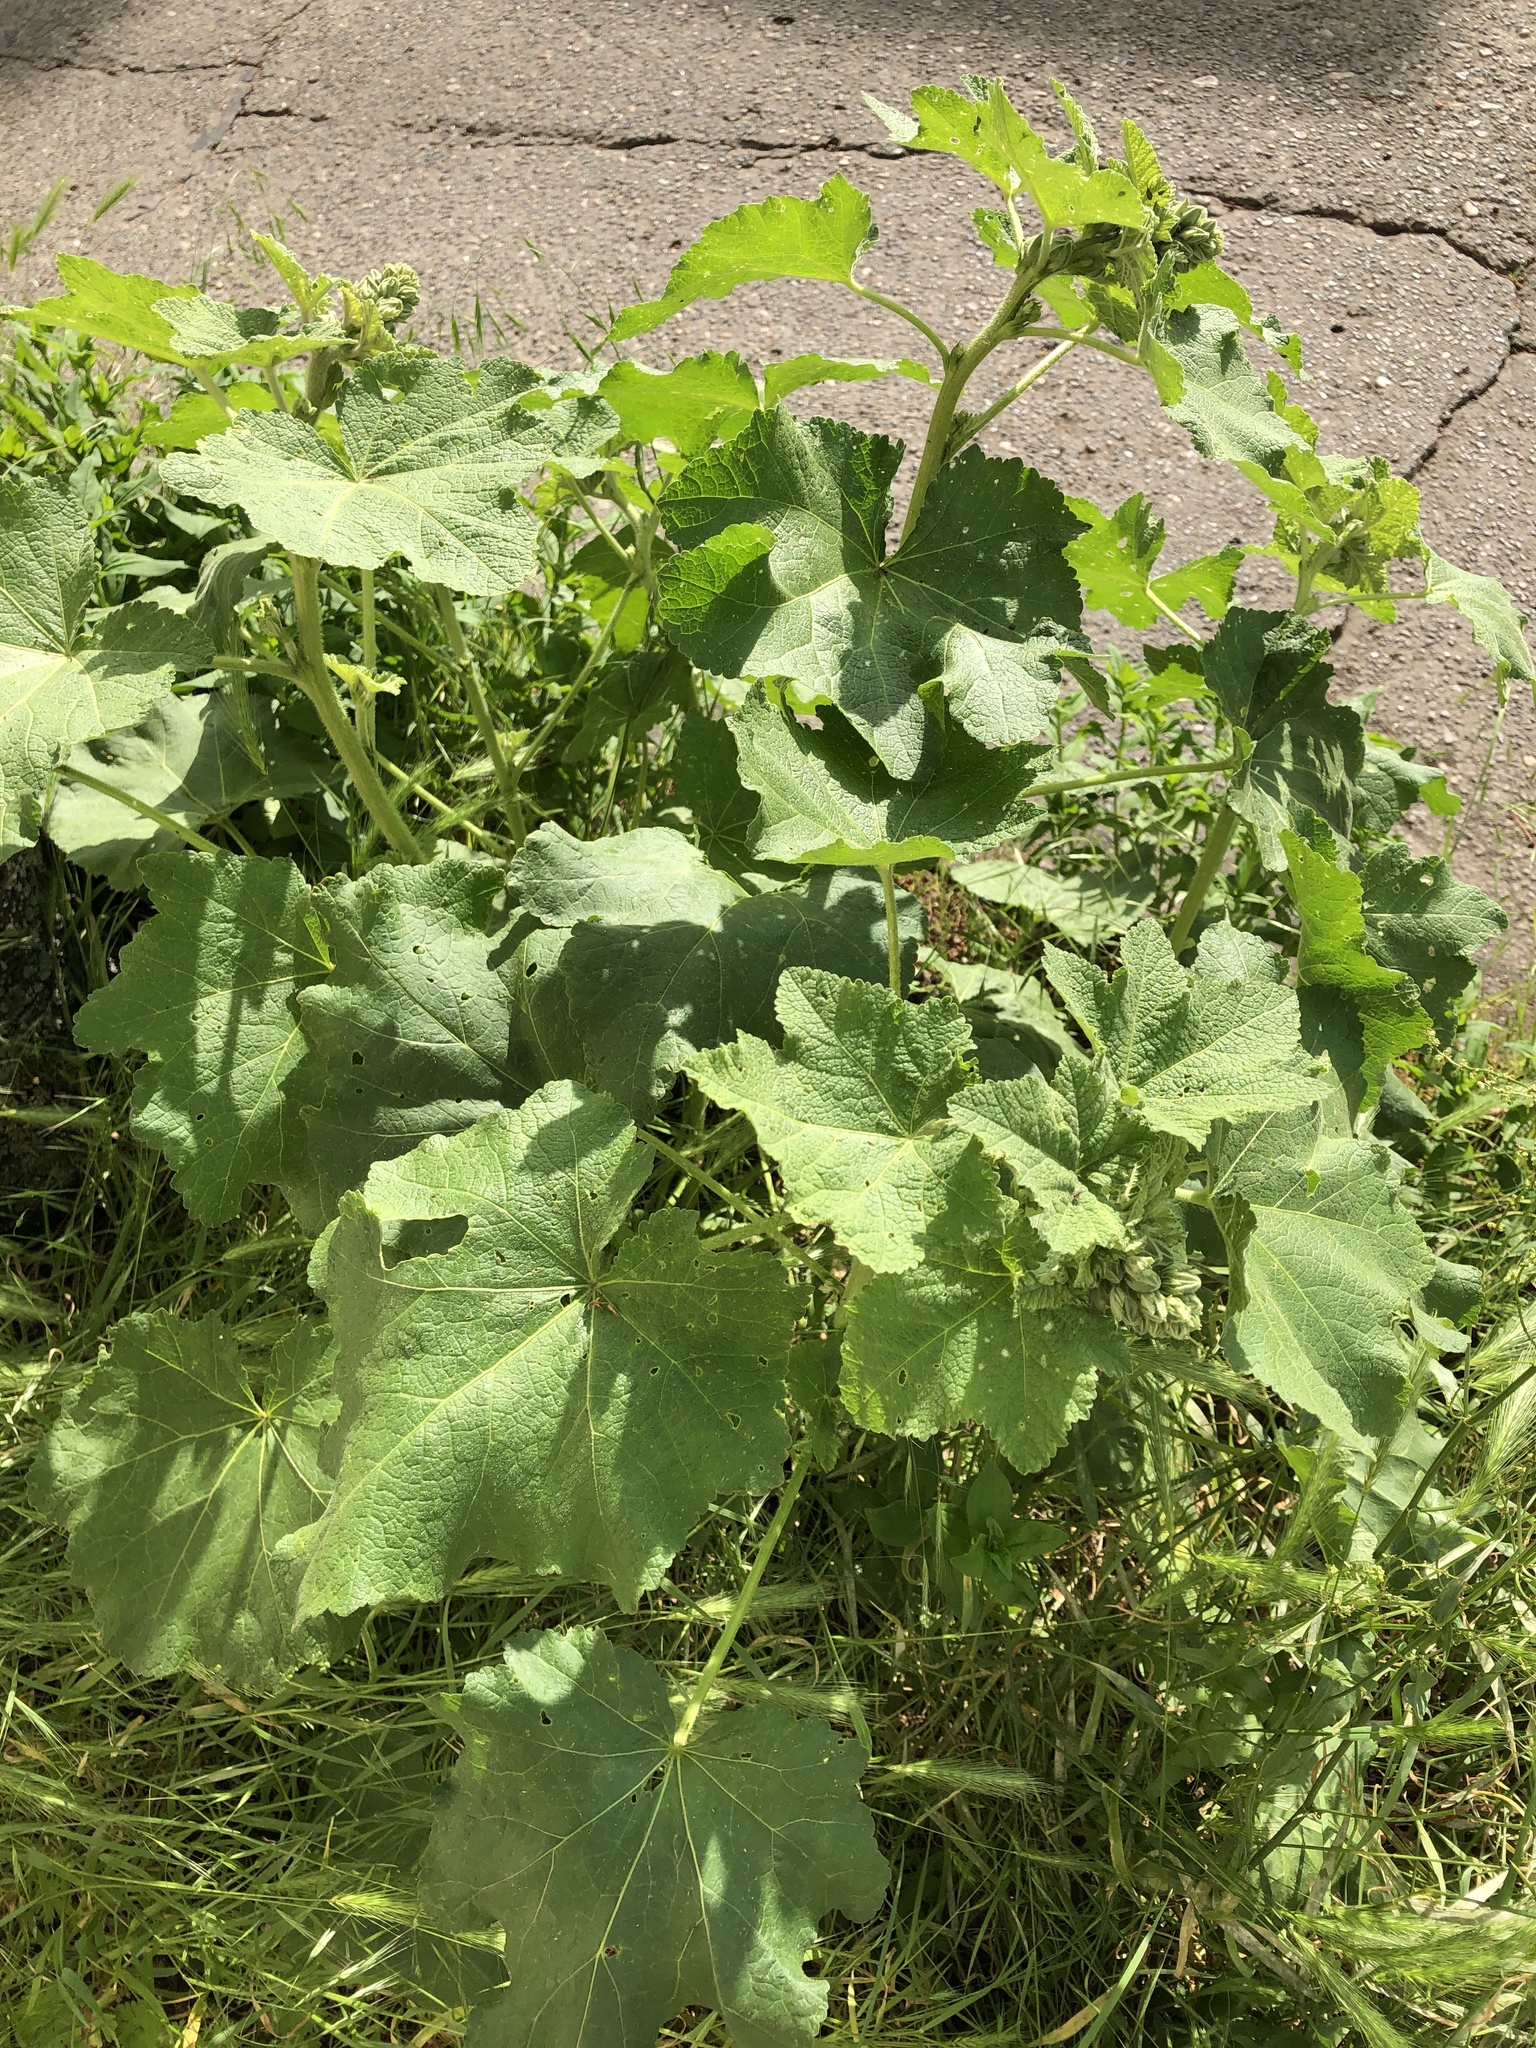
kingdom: Plantae
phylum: Tracheophyta
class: Magnoliopsida
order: Malvales
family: Malvaceae
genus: Alcea
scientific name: Alcea rosea
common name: Hollyhock
